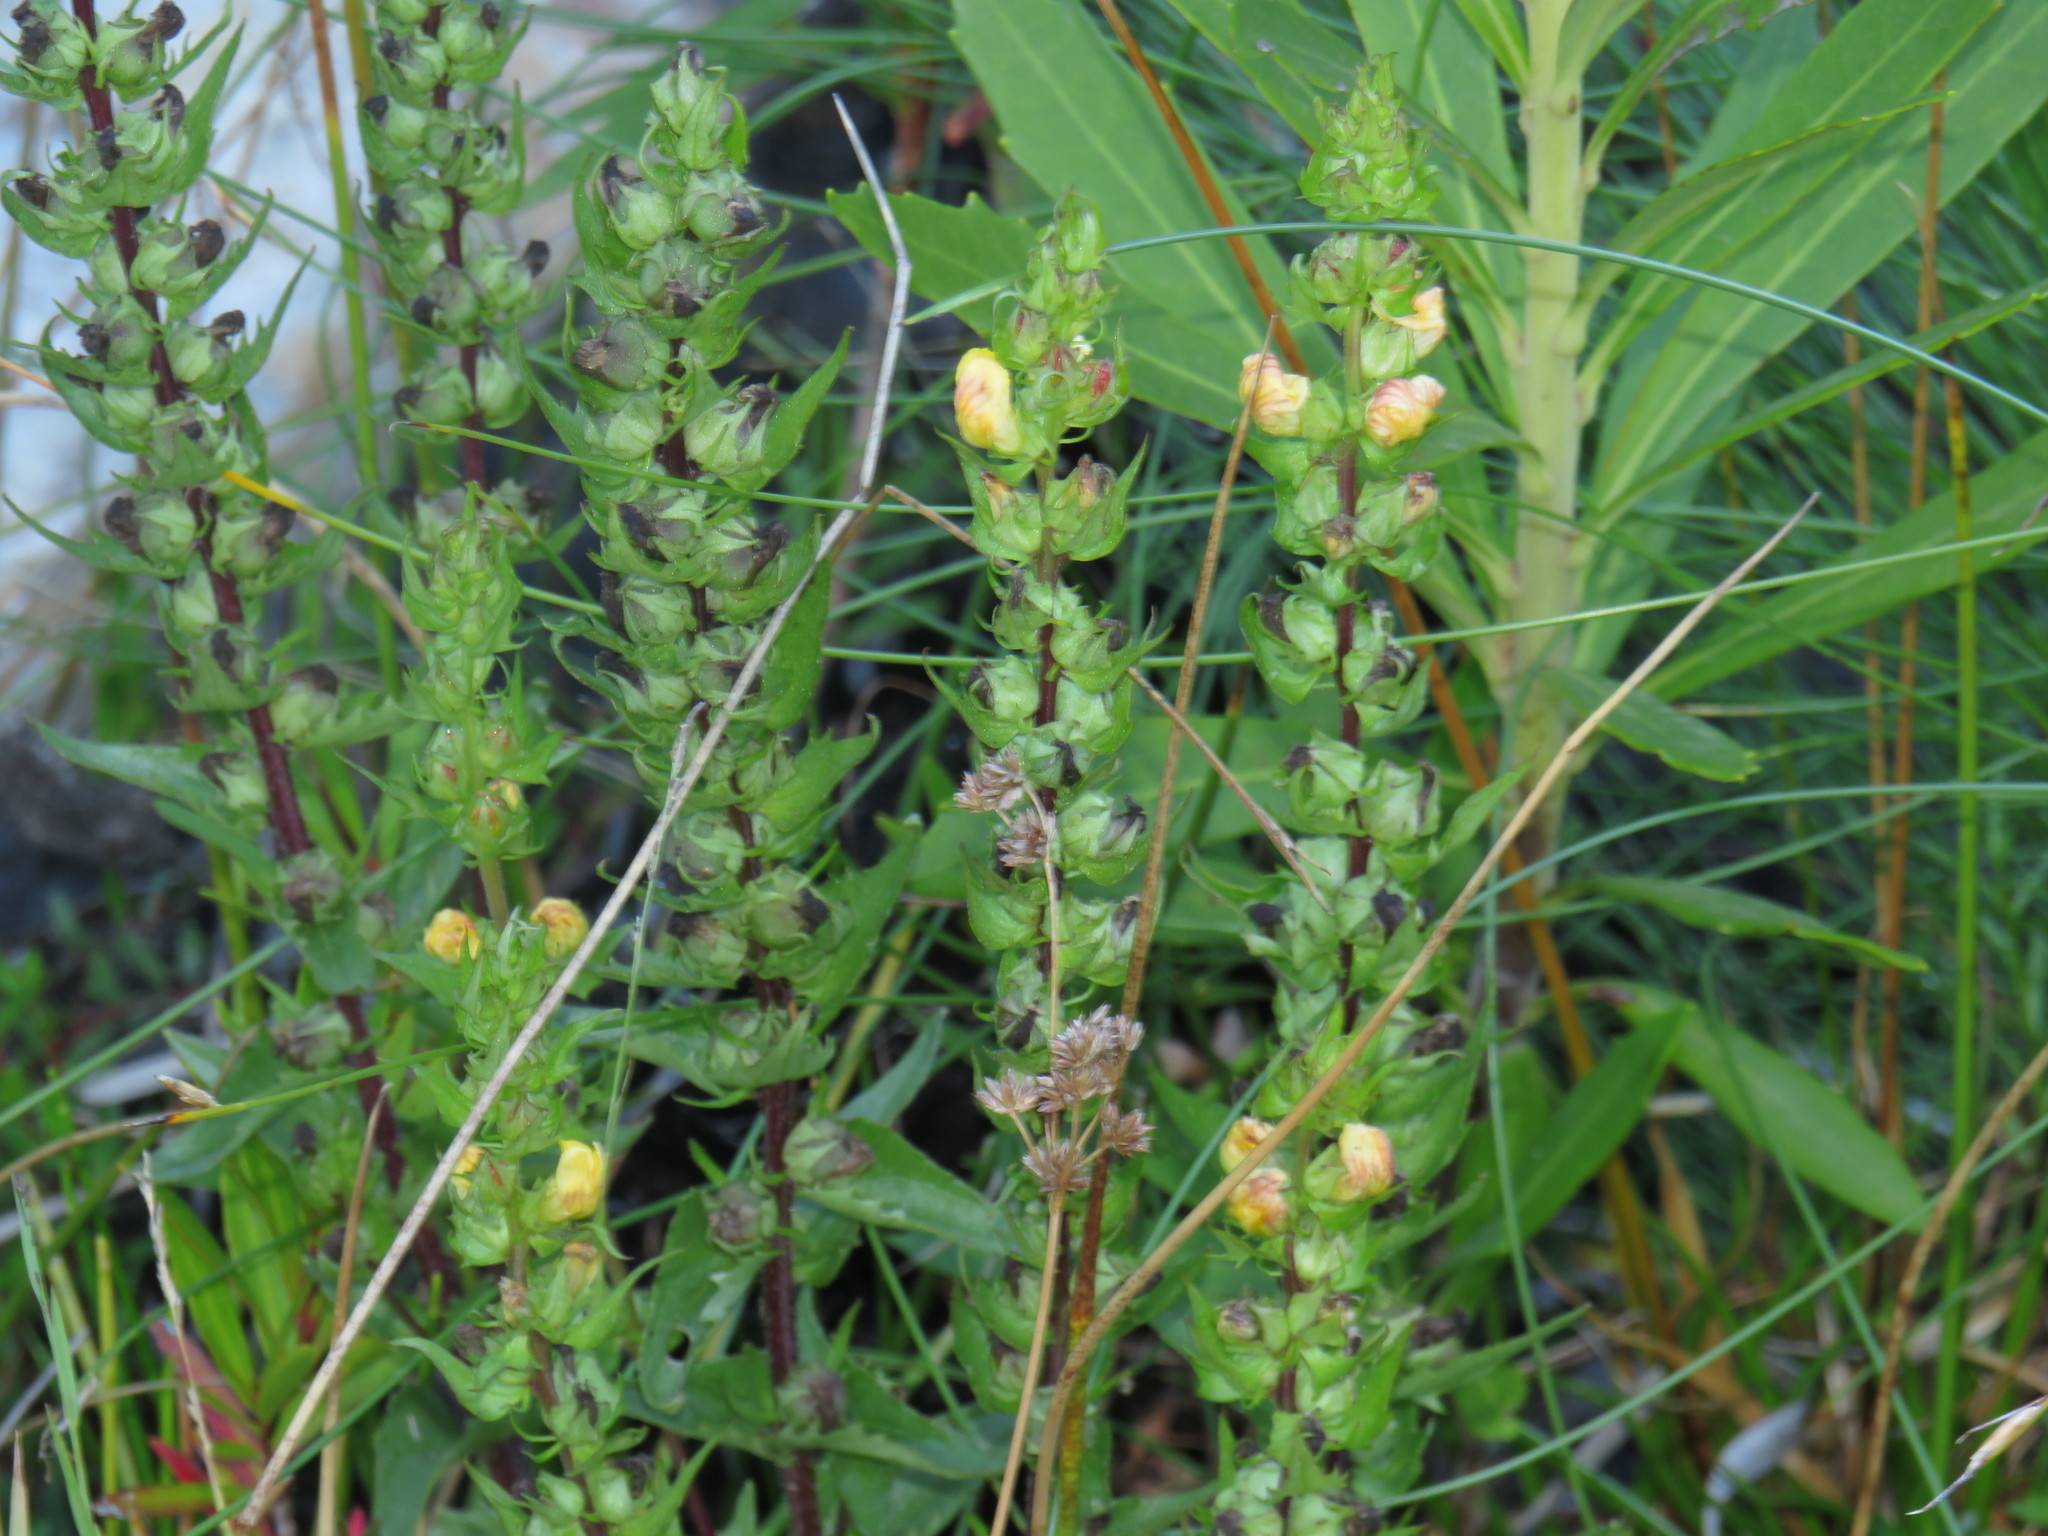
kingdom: Plantae
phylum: Tracheophyta
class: Magnoliopsida
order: Lamiales
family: Orobanchaceae
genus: Alectra
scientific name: Alectra sessiliflora
